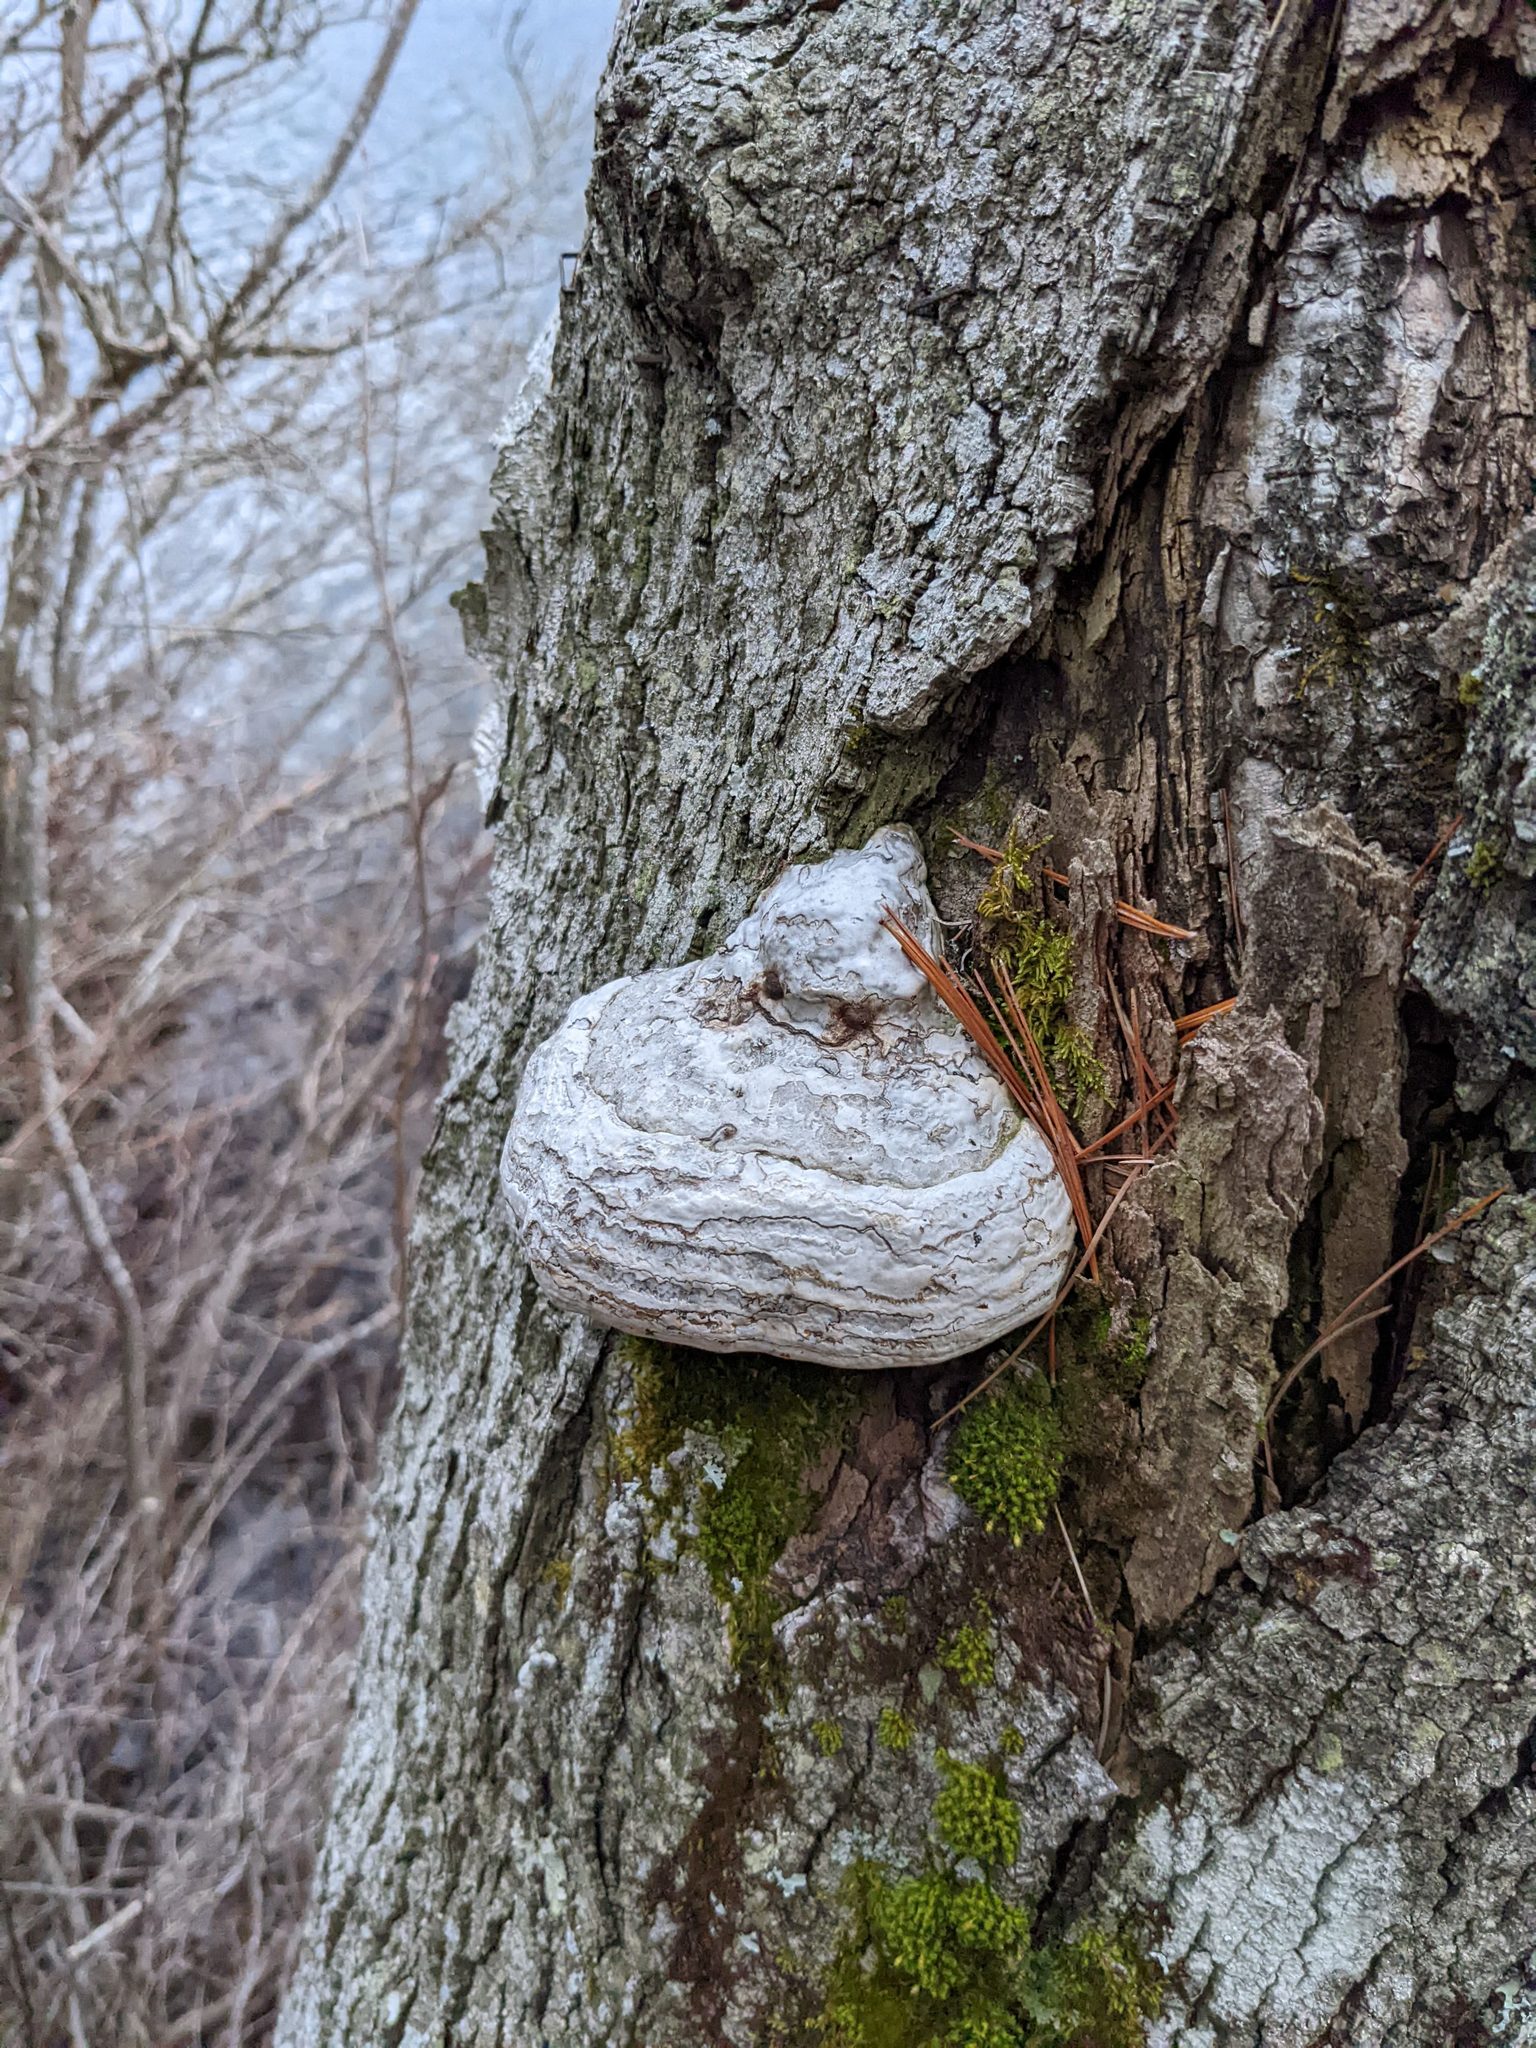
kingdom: Fungi
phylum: Basidiomycota
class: Agaricomycetes
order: Polyporales
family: Polyporaceae
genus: Fomes
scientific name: Fomes fomentarius
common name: Hoof fungus
